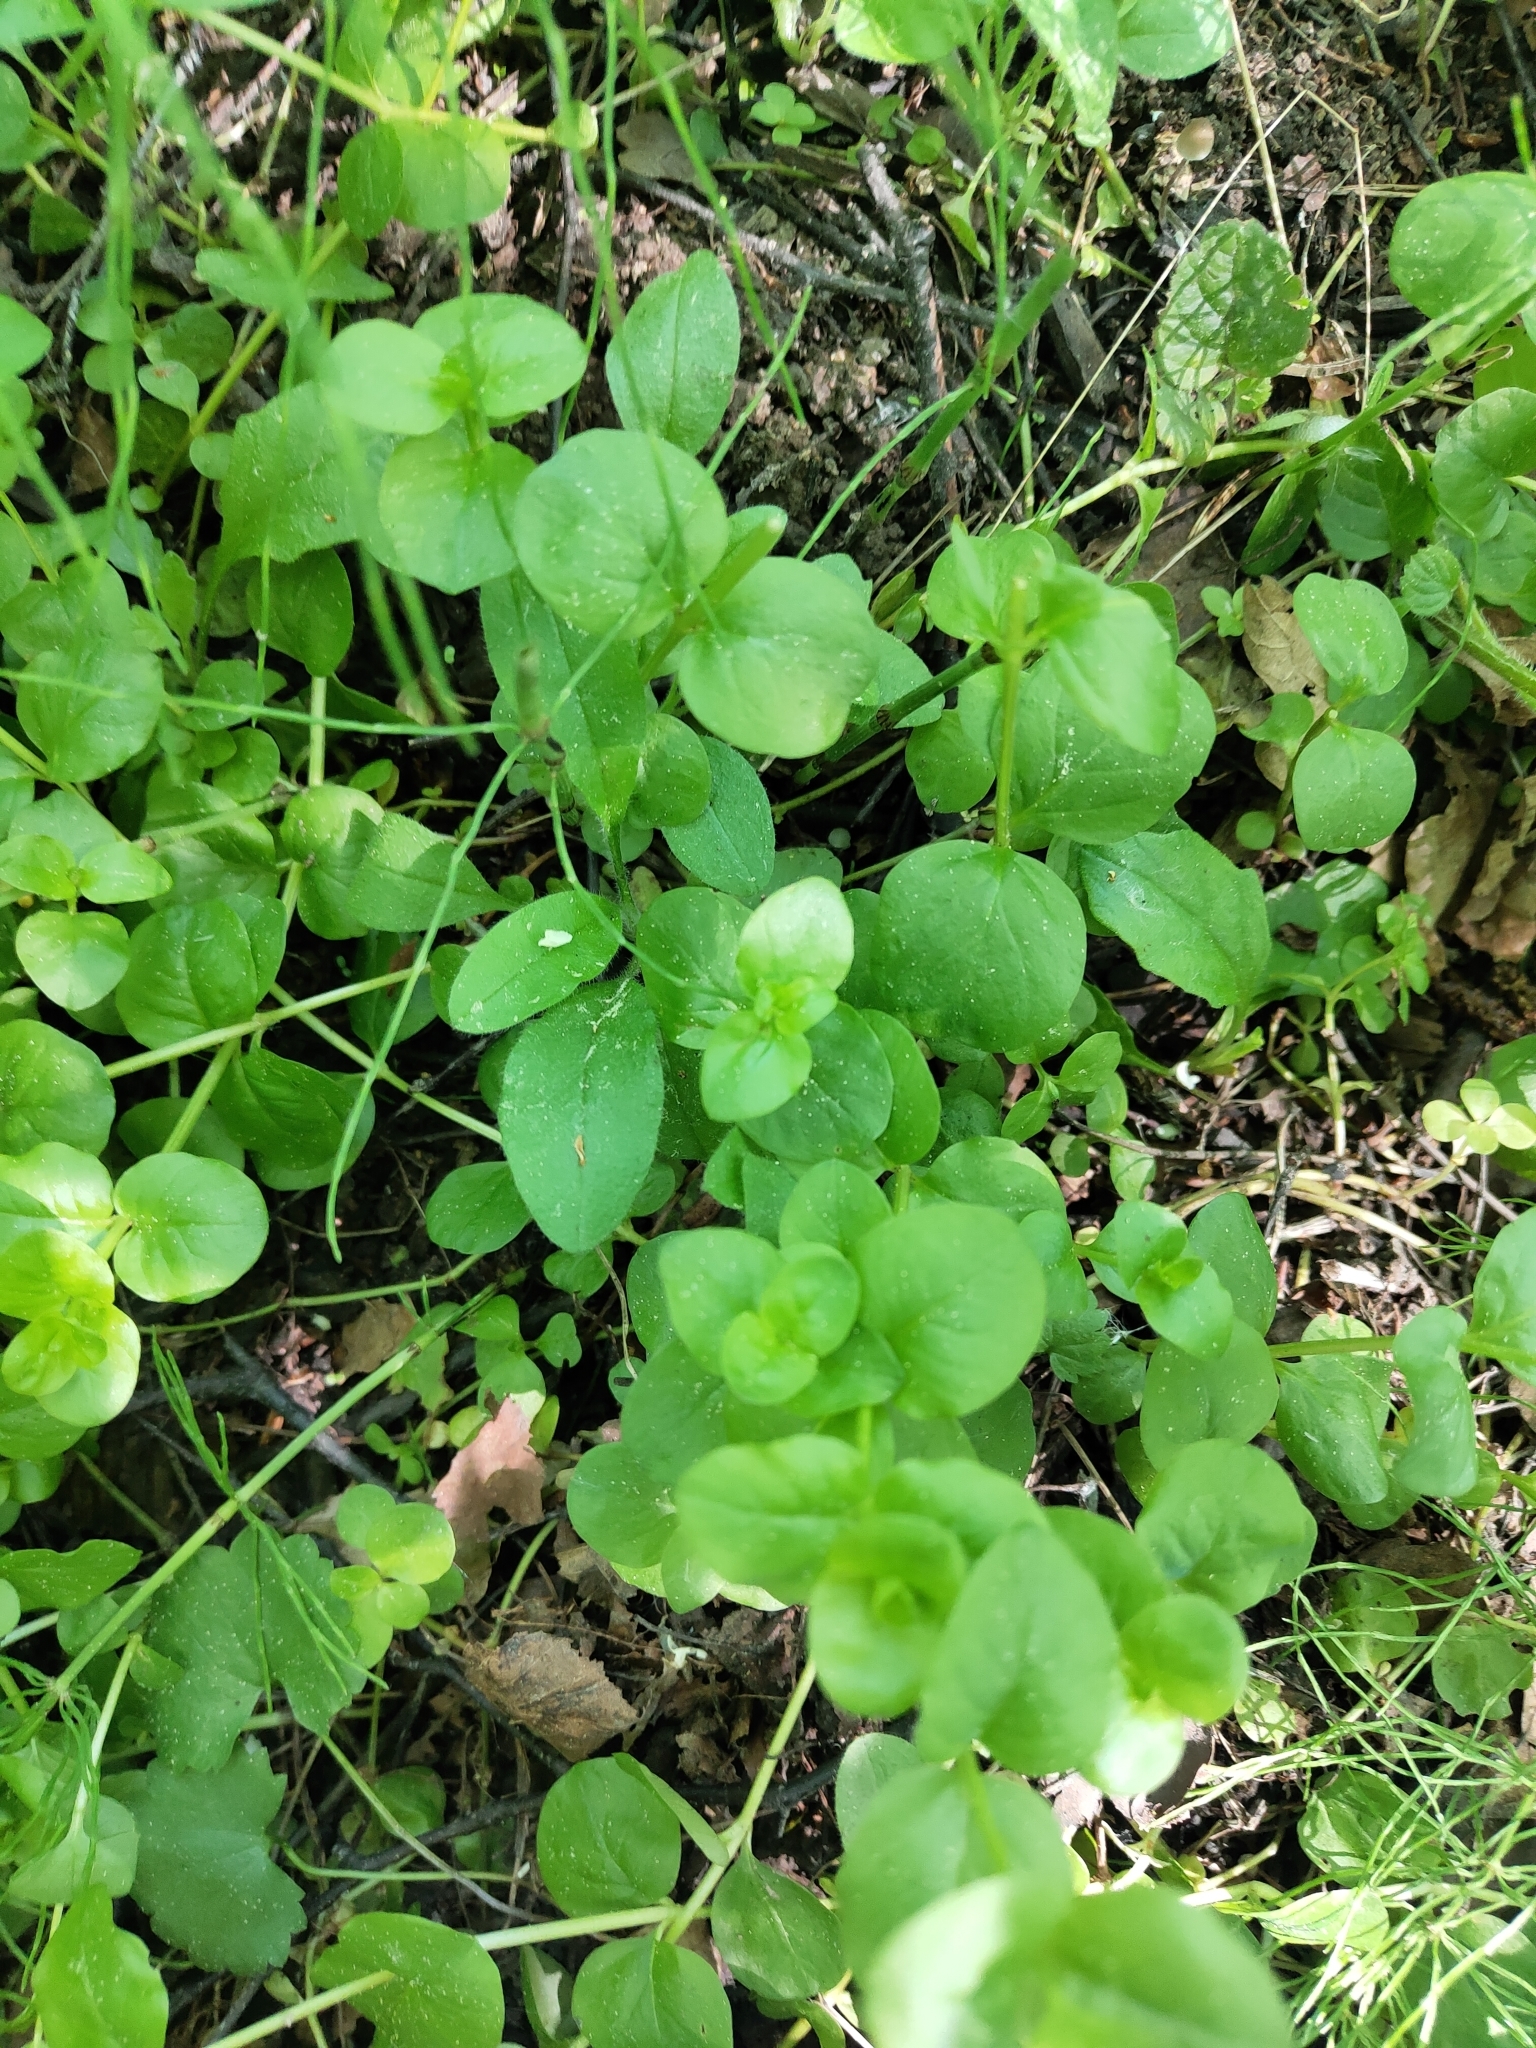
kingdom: Plantae
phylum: Tracheophyta
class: Magnoliopsida
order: Ericales
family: Primulaceae
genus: Lysimachia
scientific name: Lysimachia nummularia
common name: Moneywort
